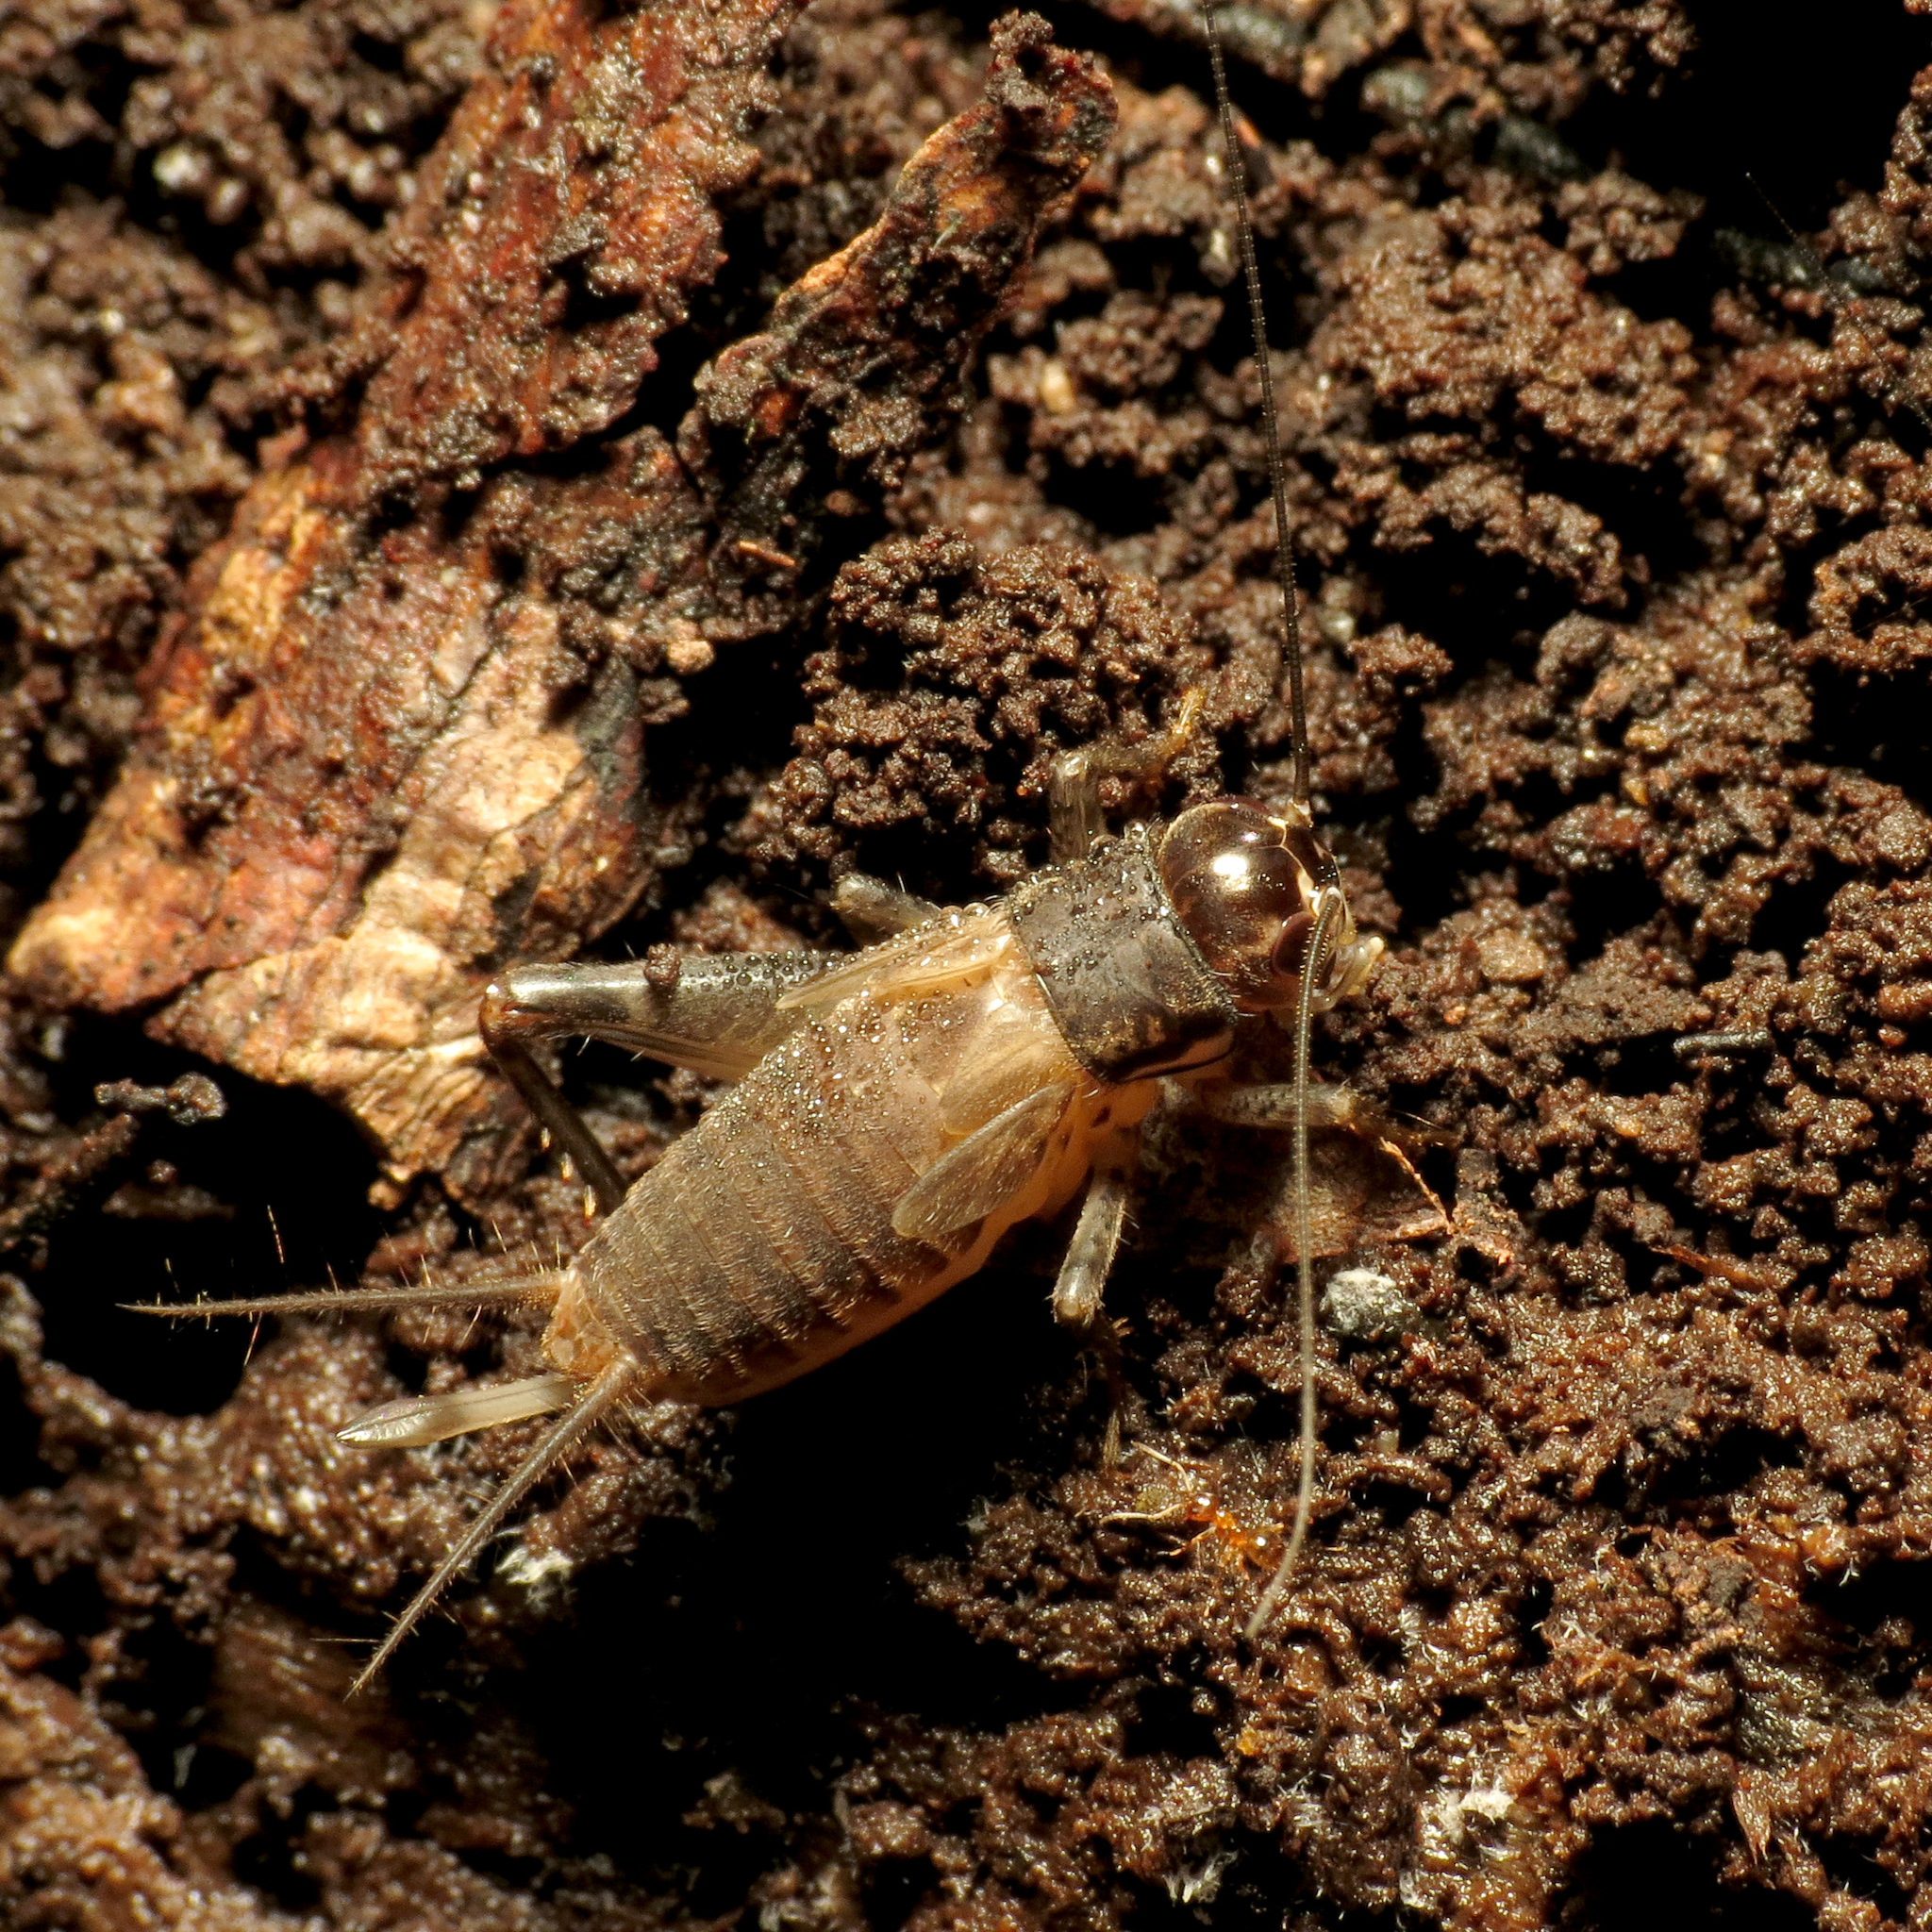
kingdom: Animalia
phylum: Arthropoda
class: Insecta
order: Orthoptera
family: Gryllidae
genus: Velarifictorus
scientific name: Velarifictorus micado
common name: Japanese burrowing cricket
